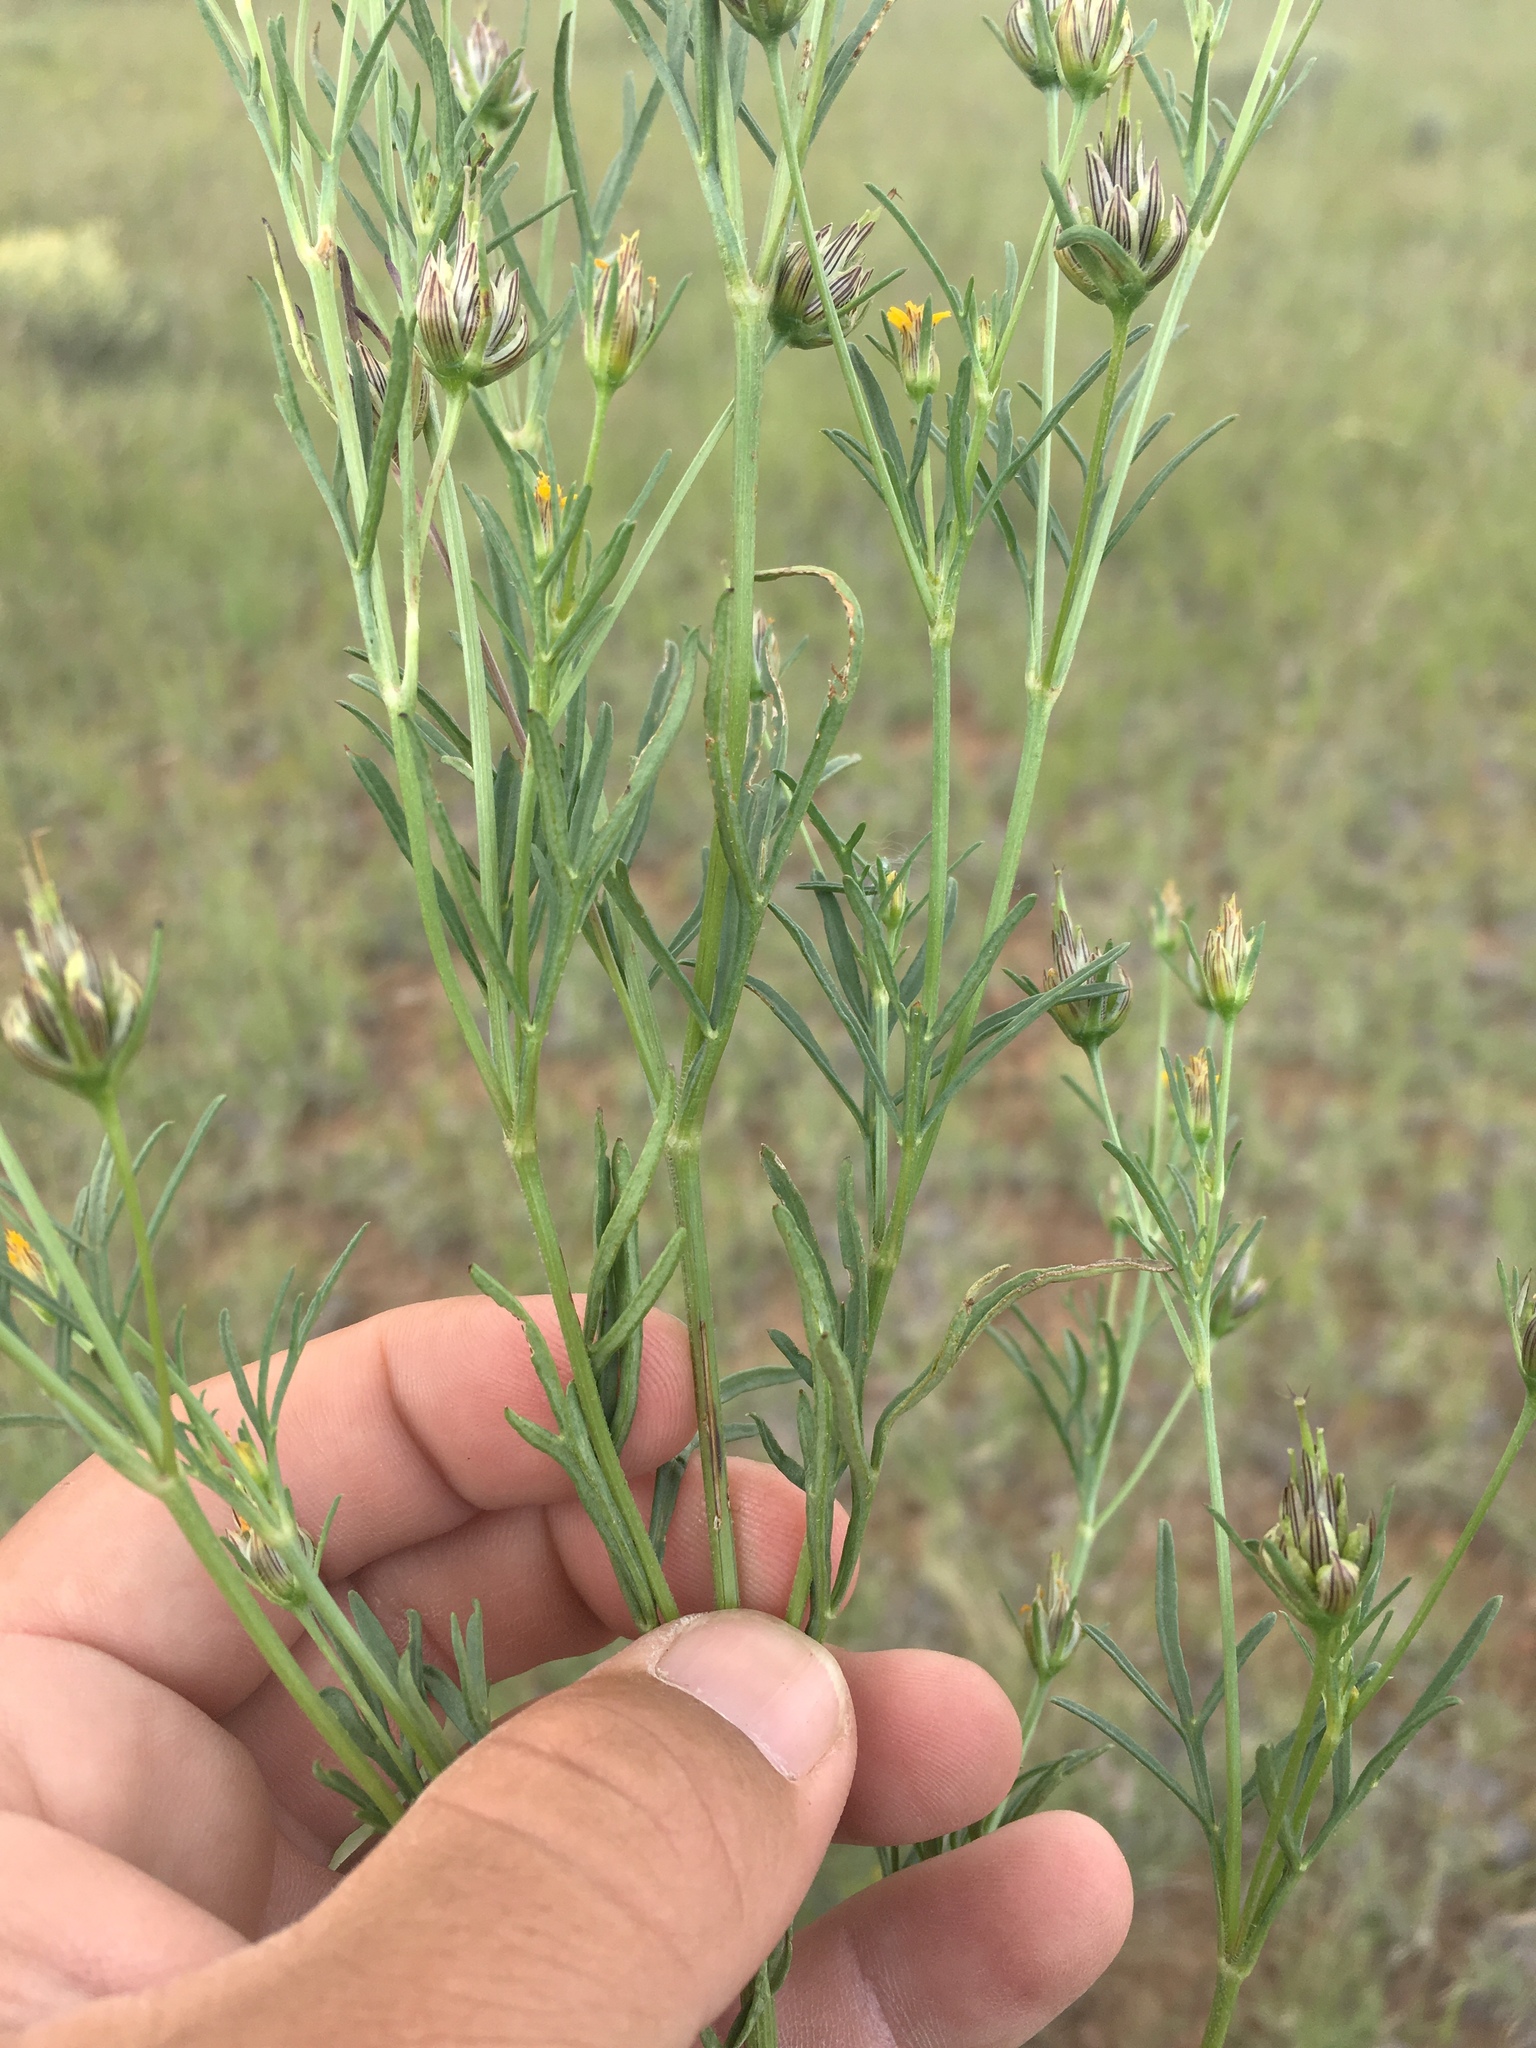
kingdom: Plantae
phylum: Tracheophyta
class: Magnoliopsida
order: Asterales
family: Asteraceae
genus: Heterosperma
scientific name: Heterosperma pinnatum
